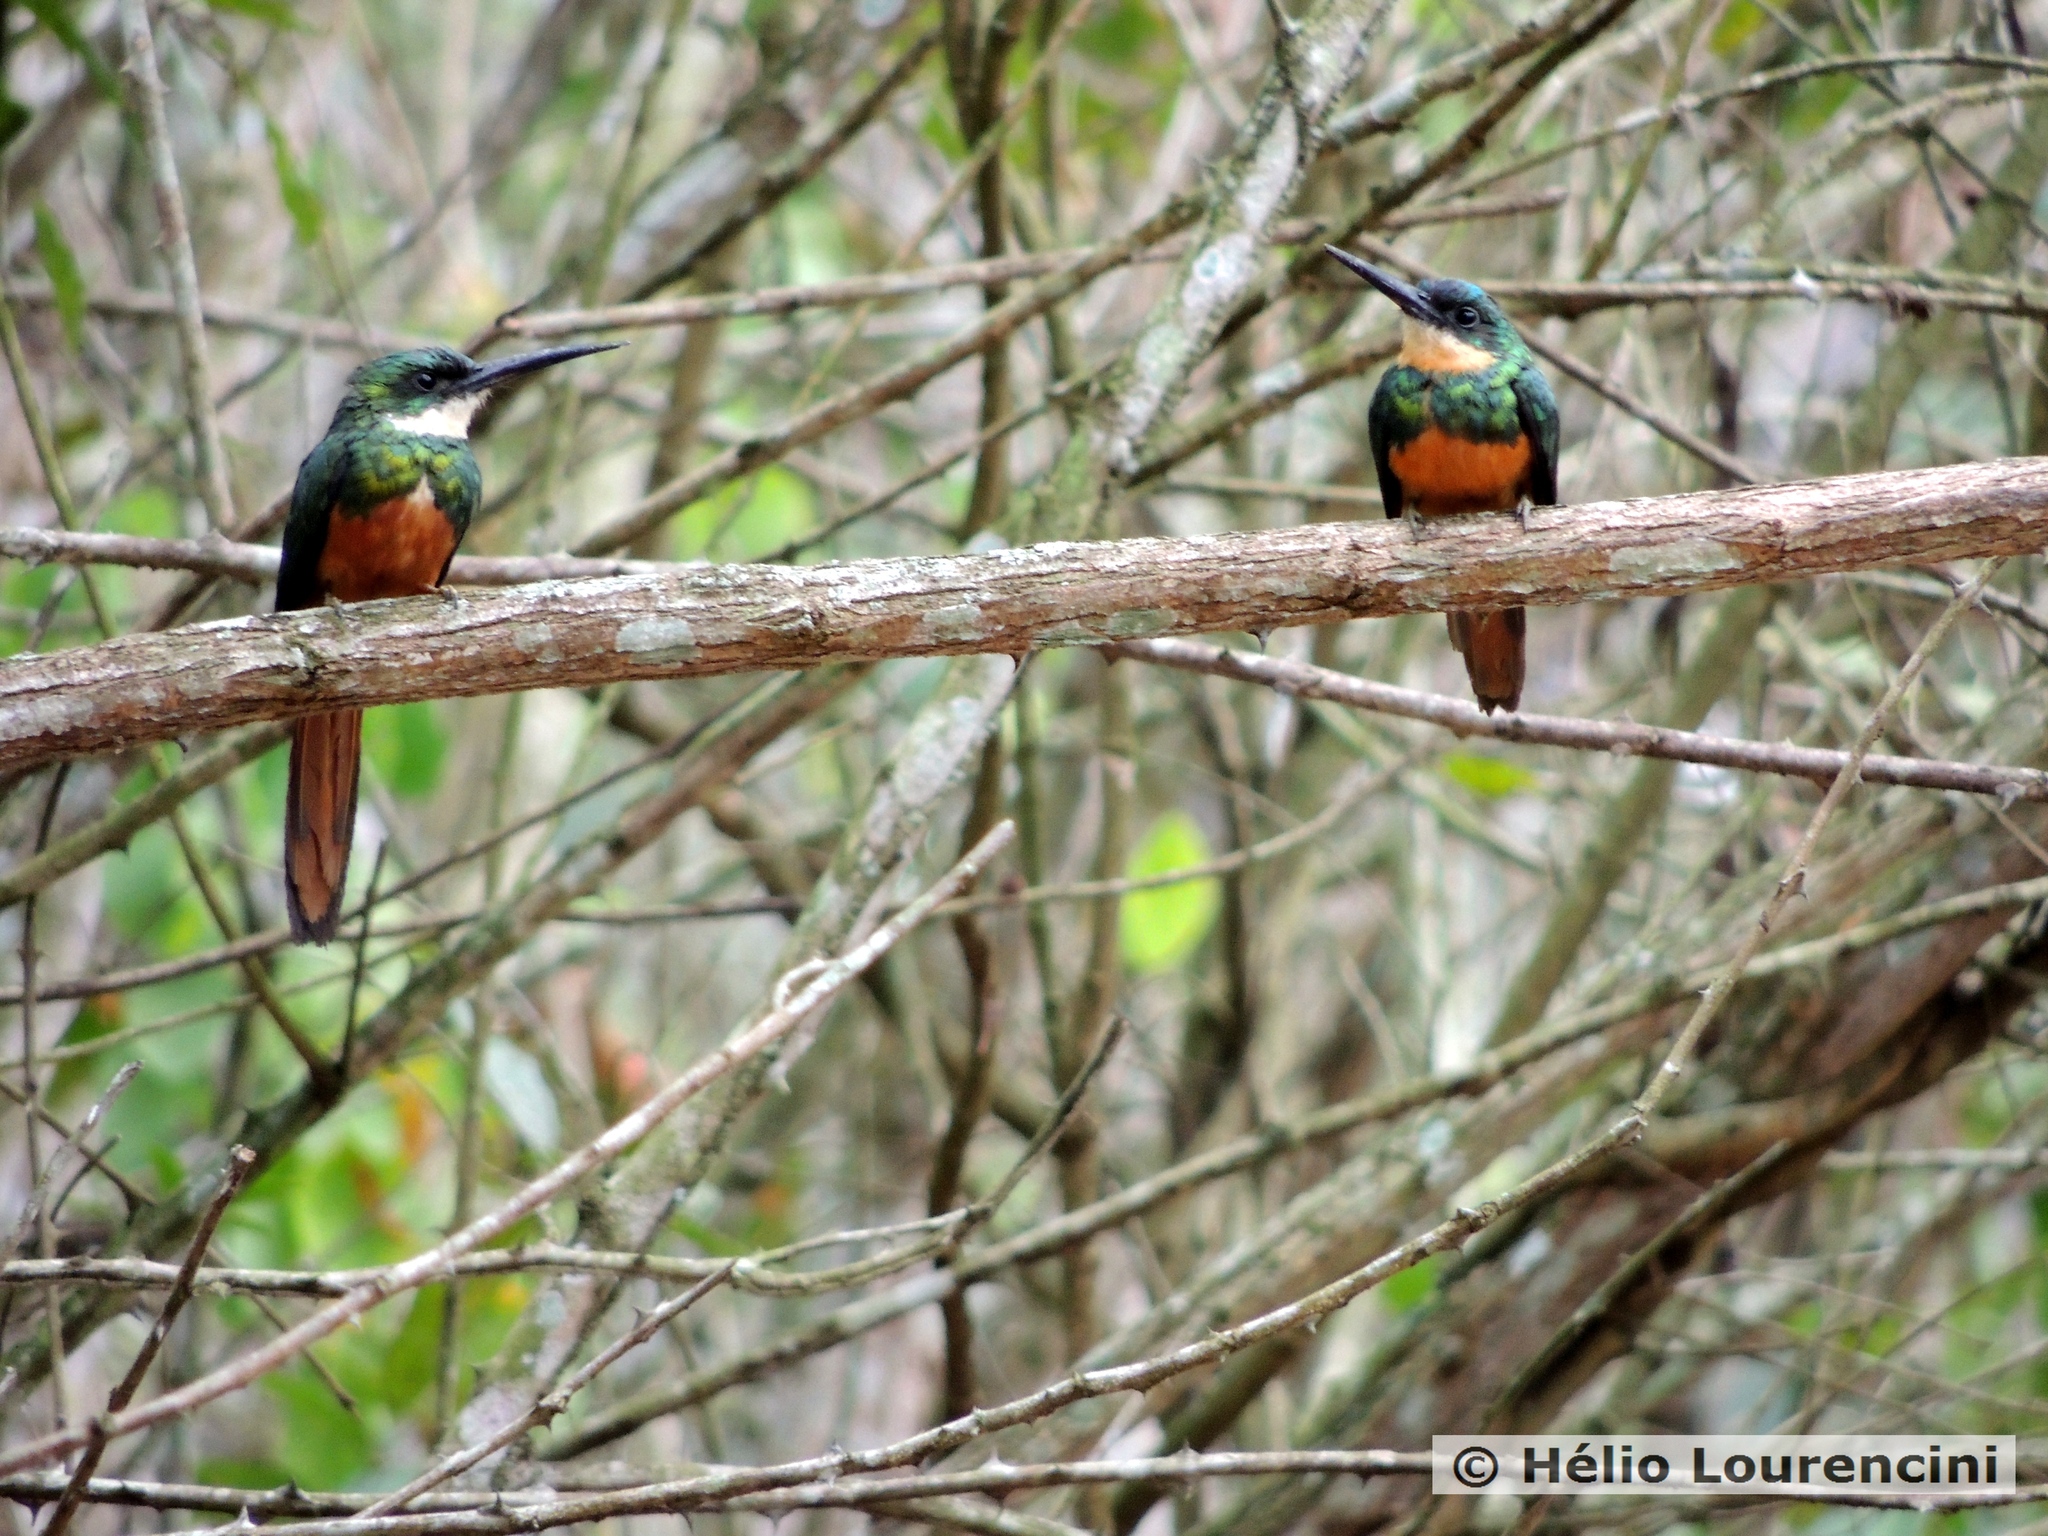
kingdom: Animalia
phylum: Chordata
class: Aves
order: Piciformes
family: Galbulidae
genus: Galbula
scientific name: Galbula ruficauda
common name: Rufous-tailed jacamar
